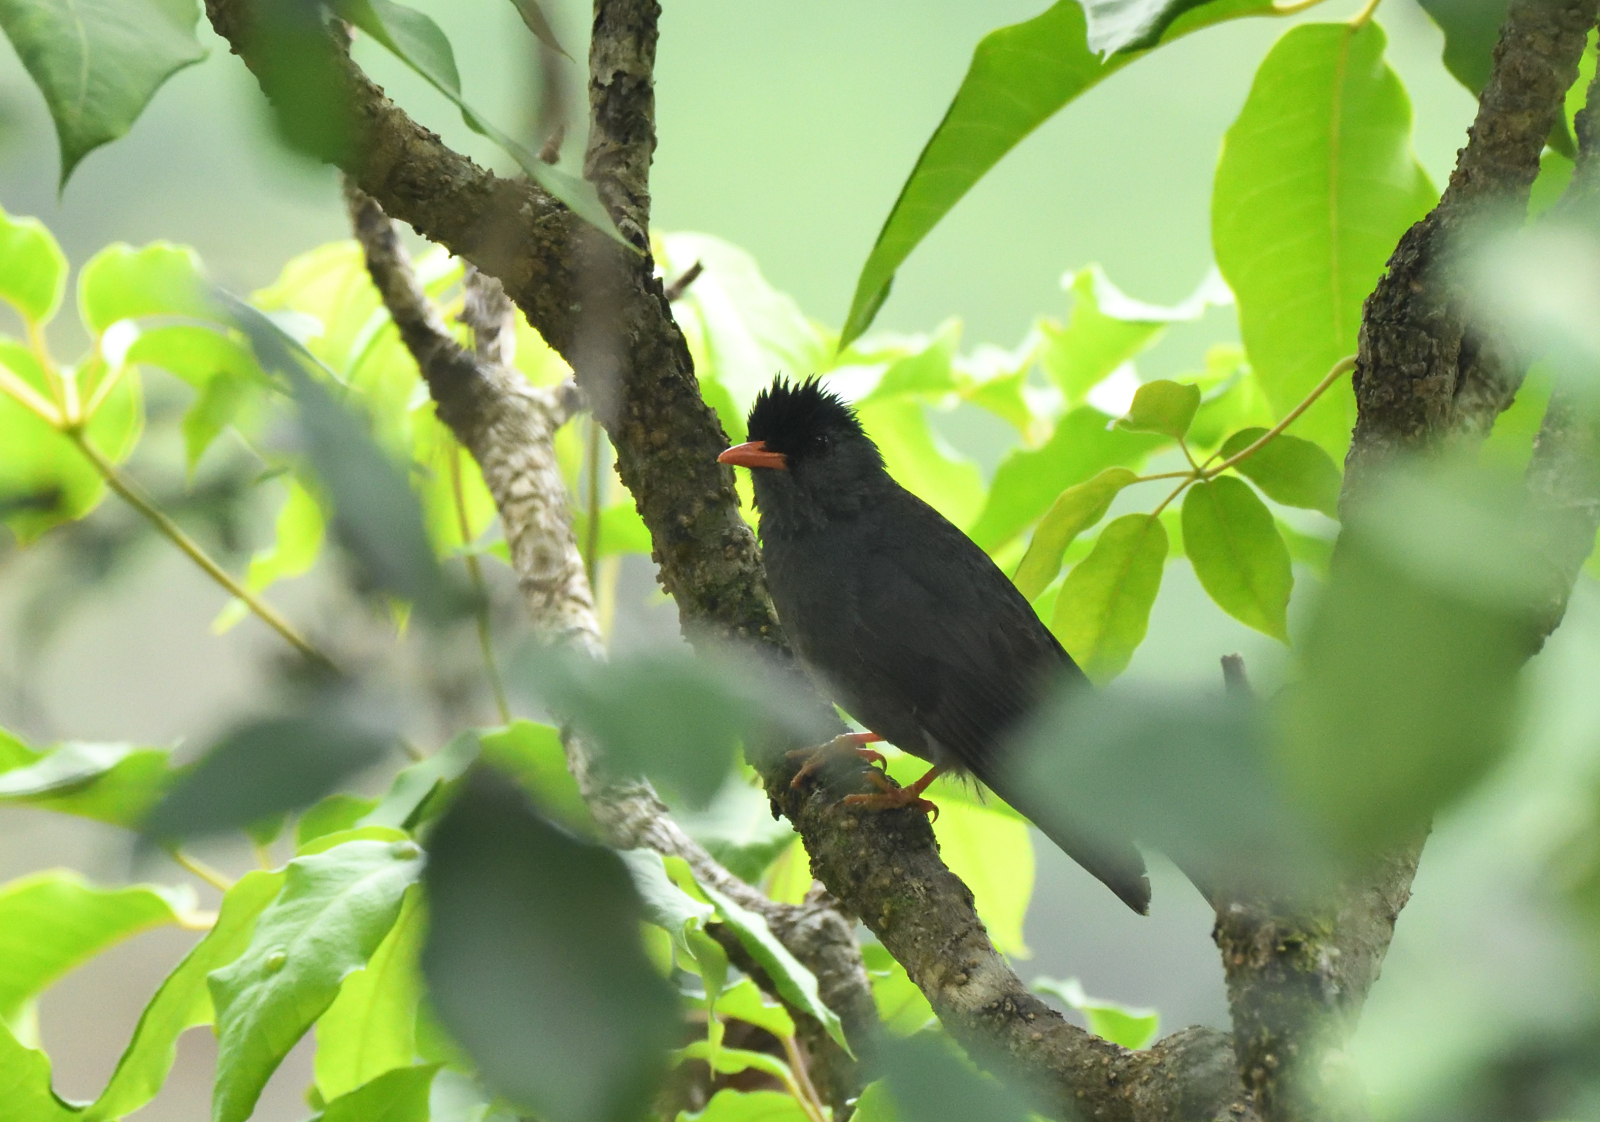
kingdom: Animalia
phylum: Chordata
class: Aves
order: Passeriformes
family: Pycnonotidae
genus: Hypsipetes
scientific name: Hypsipetes ganeesa
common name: Square-tailed bulbul
